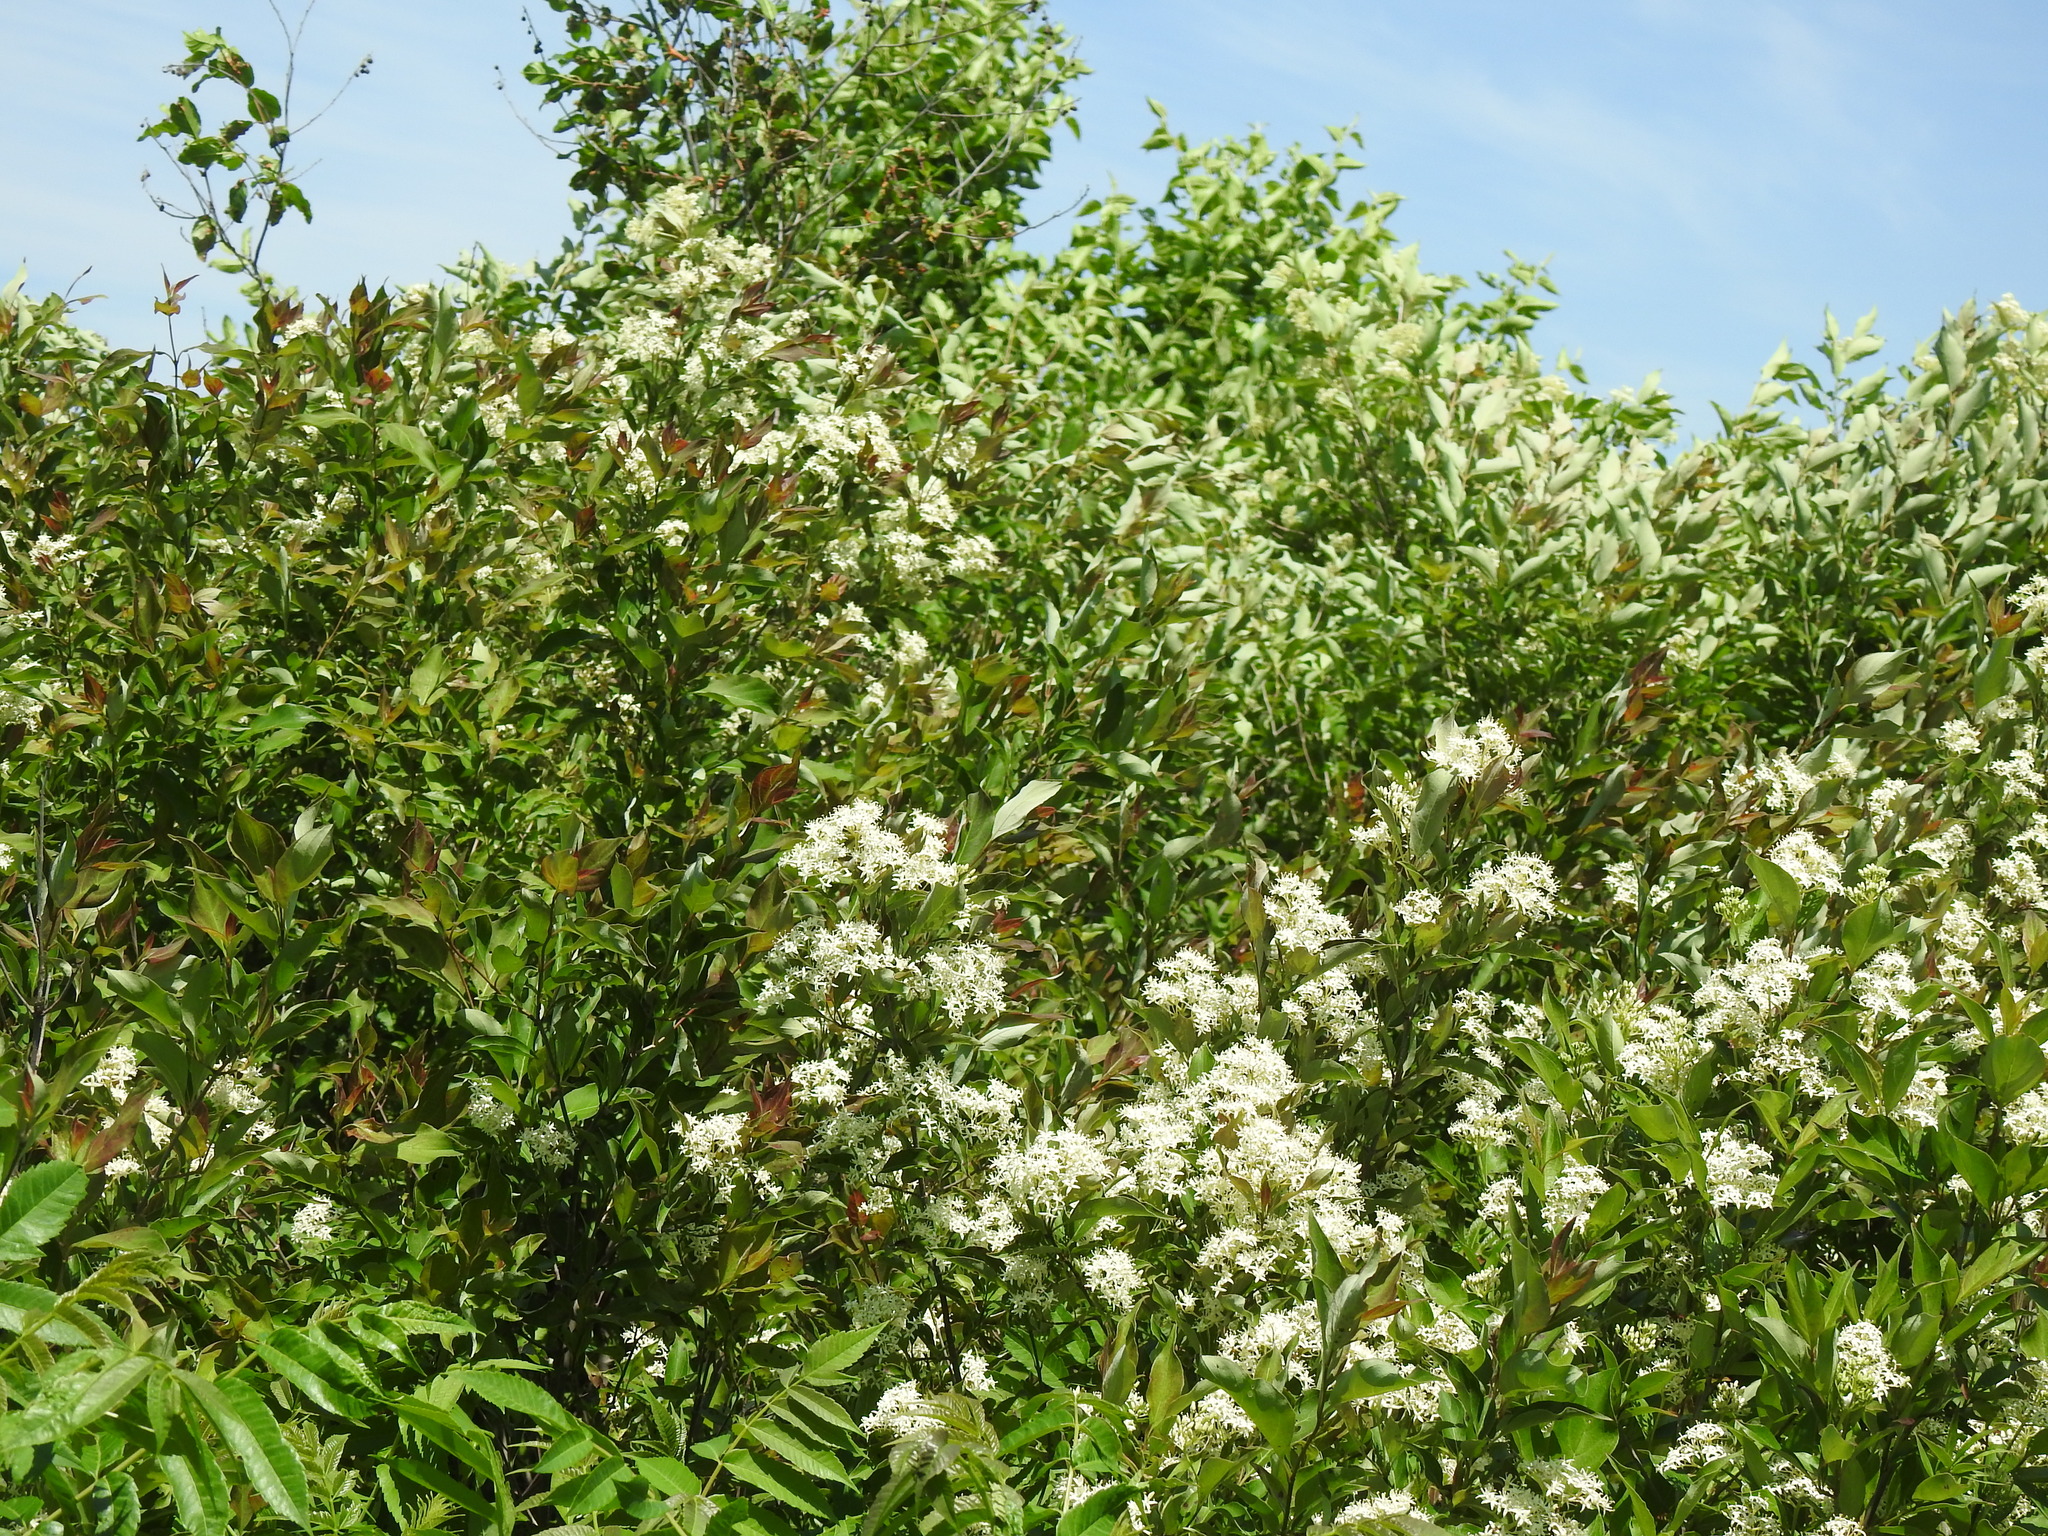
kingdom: Plantae
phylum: Tracheophyta
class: Magnoliopsida
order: Cornales
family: Cornaceae
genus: Cornus
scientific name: Cornus racemosa
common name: Panicled dogwood
